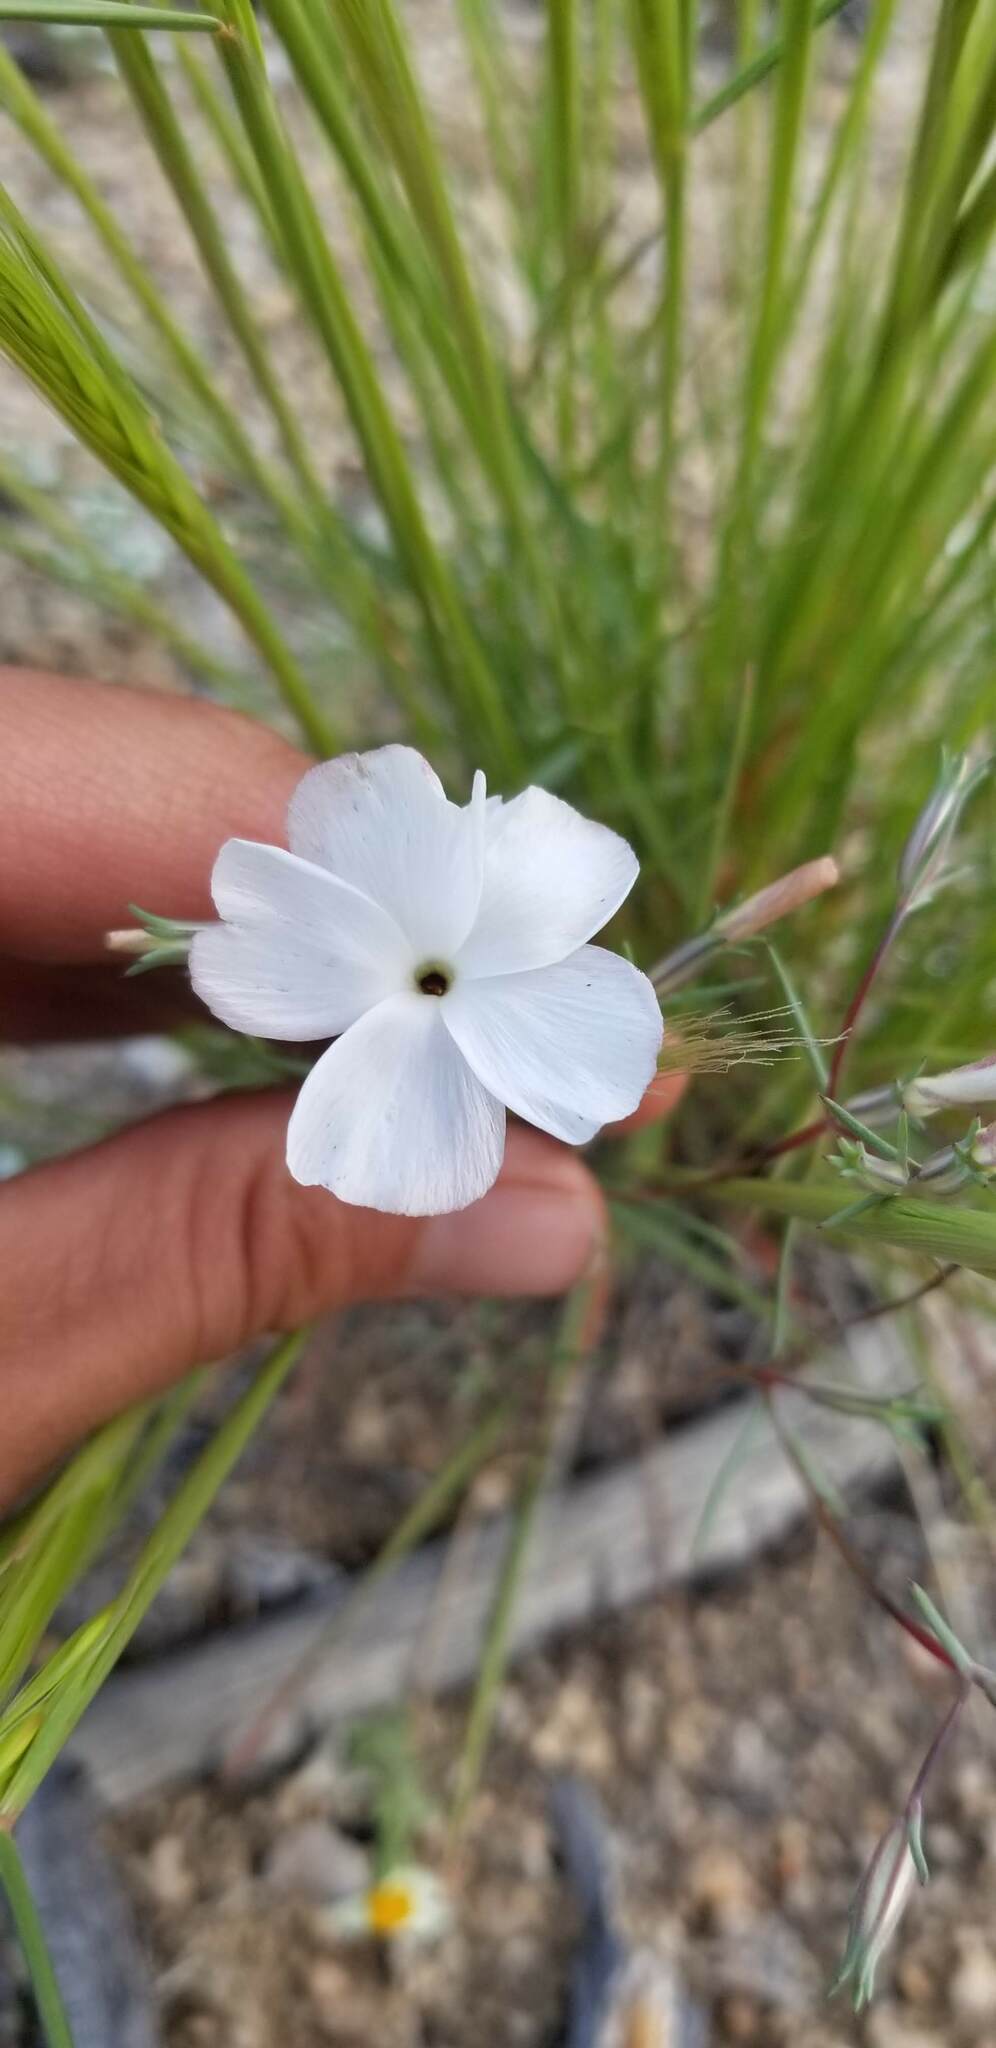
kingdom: Plantae
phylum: Tracheophyta
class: Magnoliopsida
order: Ericales
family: Polemoniaceae
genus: Linanthus
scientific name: Linanthus dichotomus
